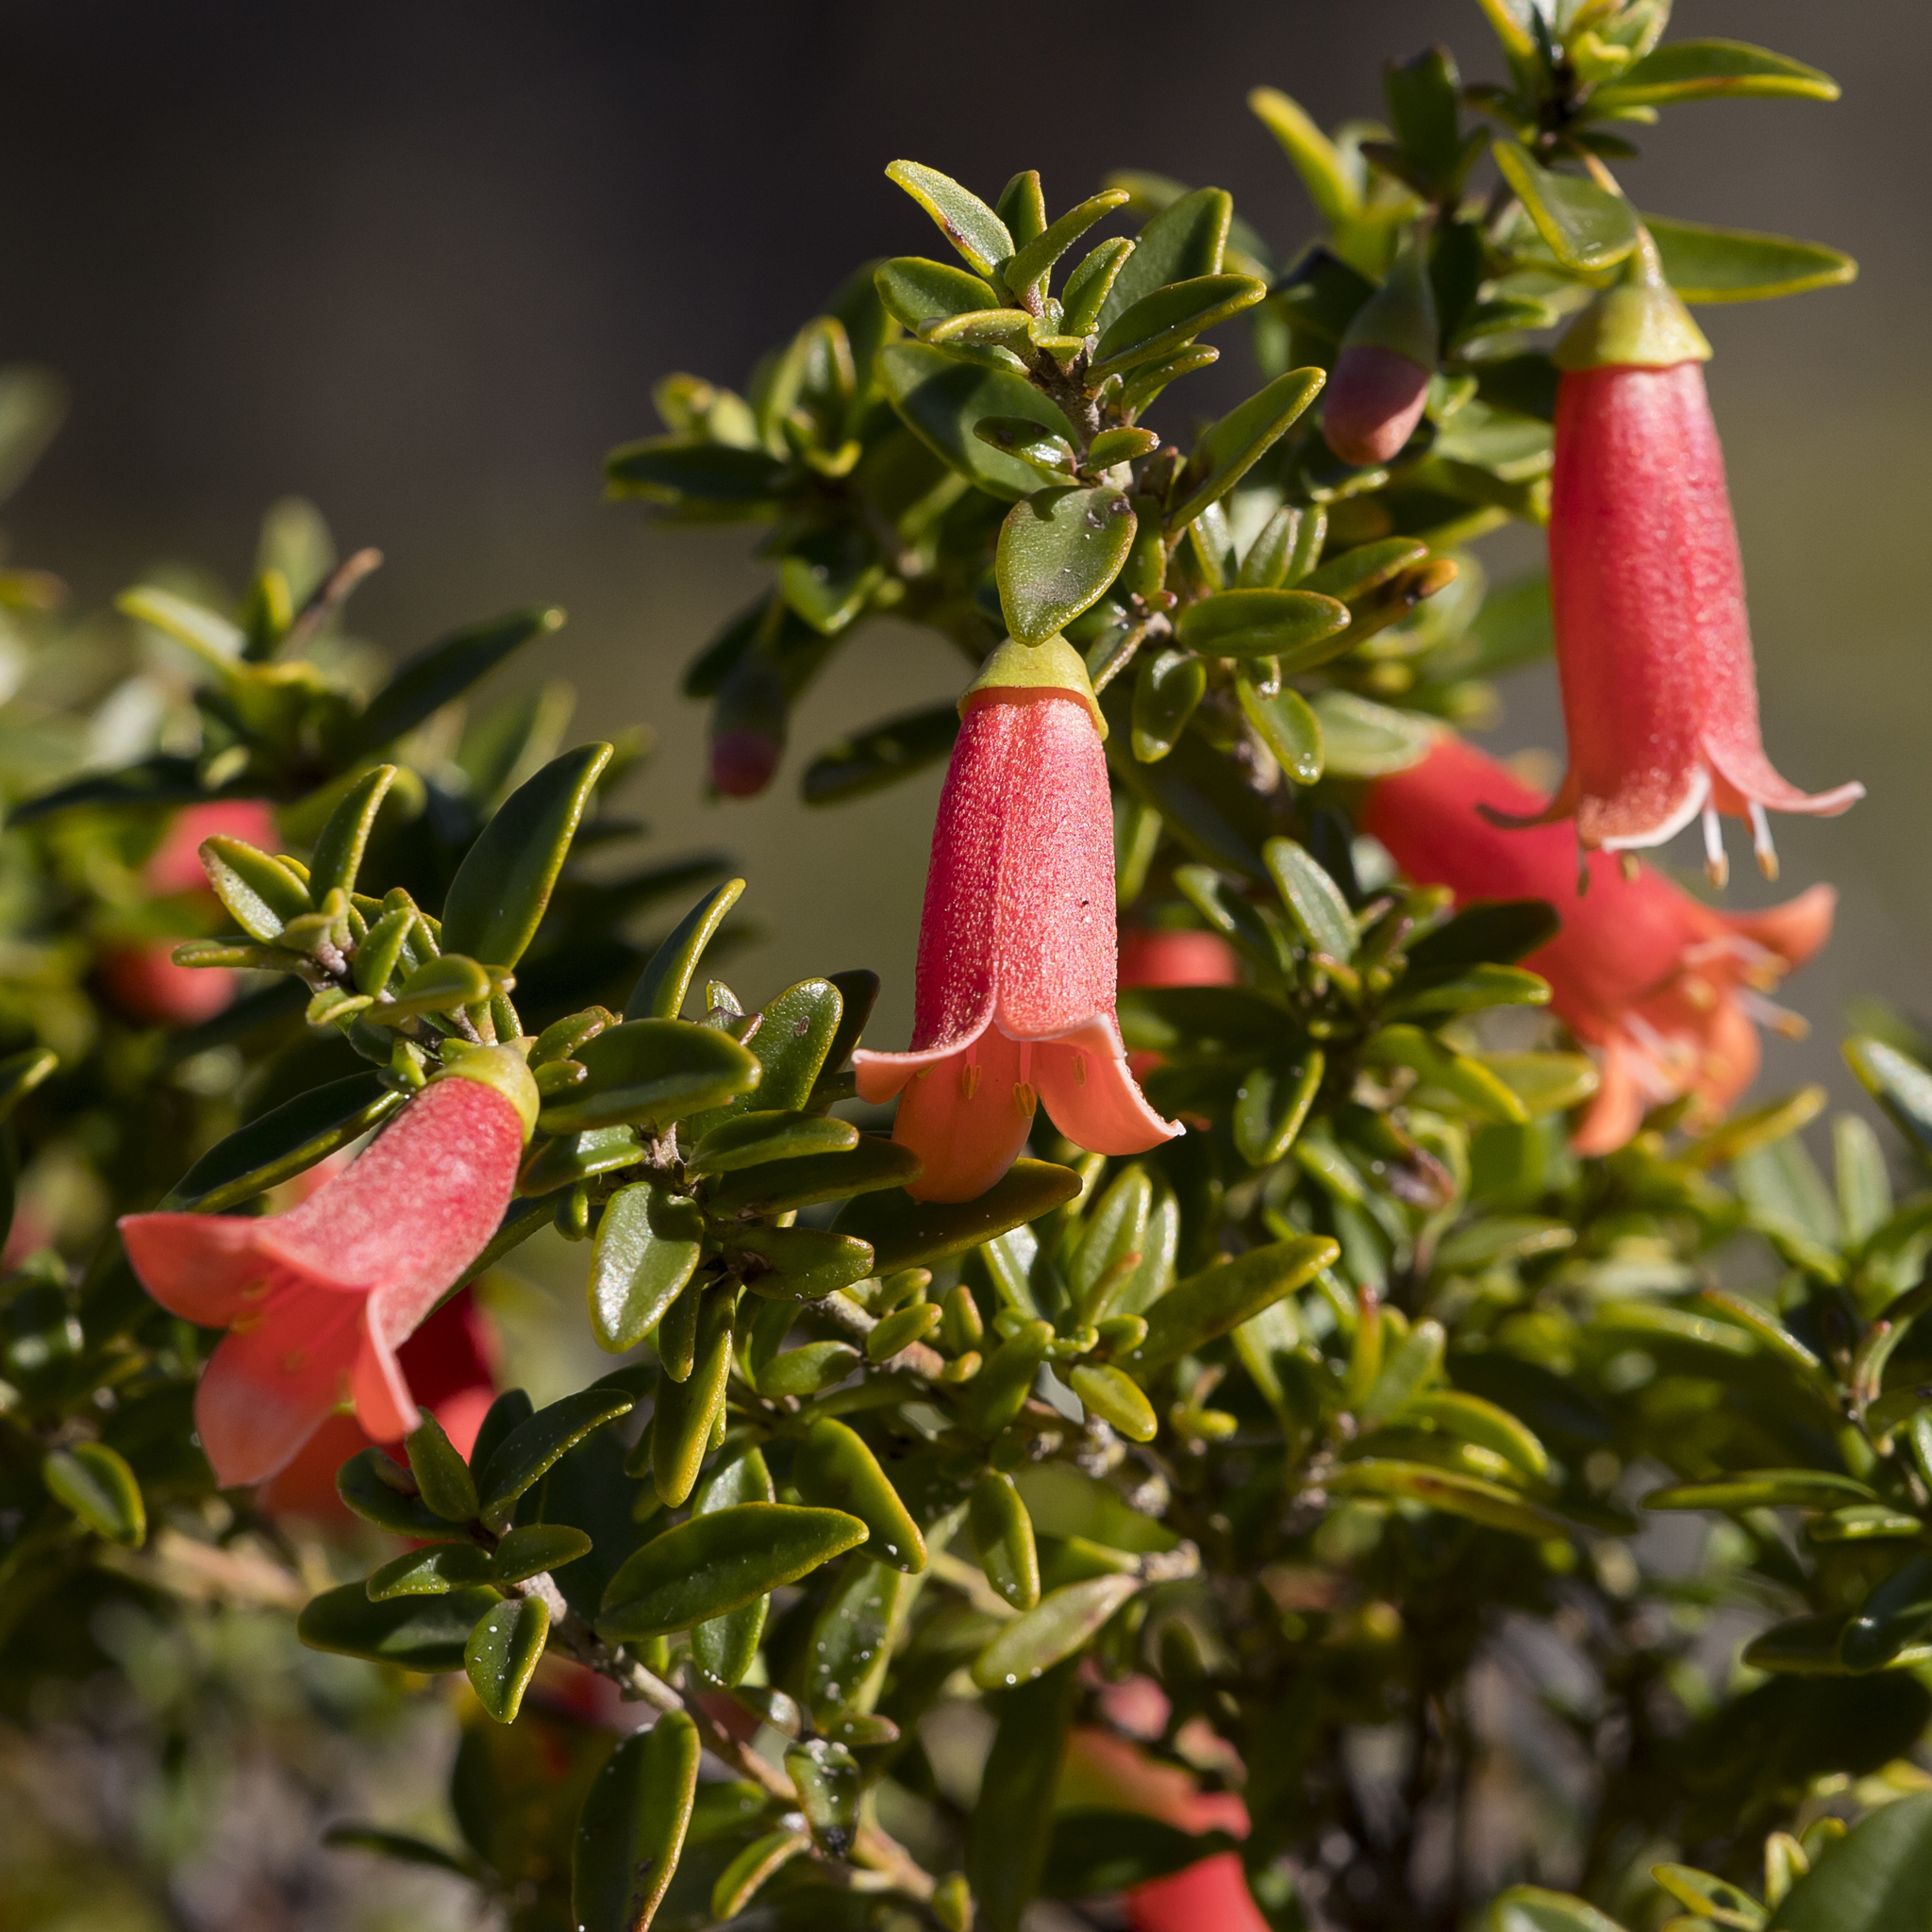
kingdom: Plantae
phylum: Tracheophyta
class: Magnoliopsida
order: Sapindales
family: Rutaceae
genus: Correa
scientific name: Correa pulchella
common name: Salmon correa
